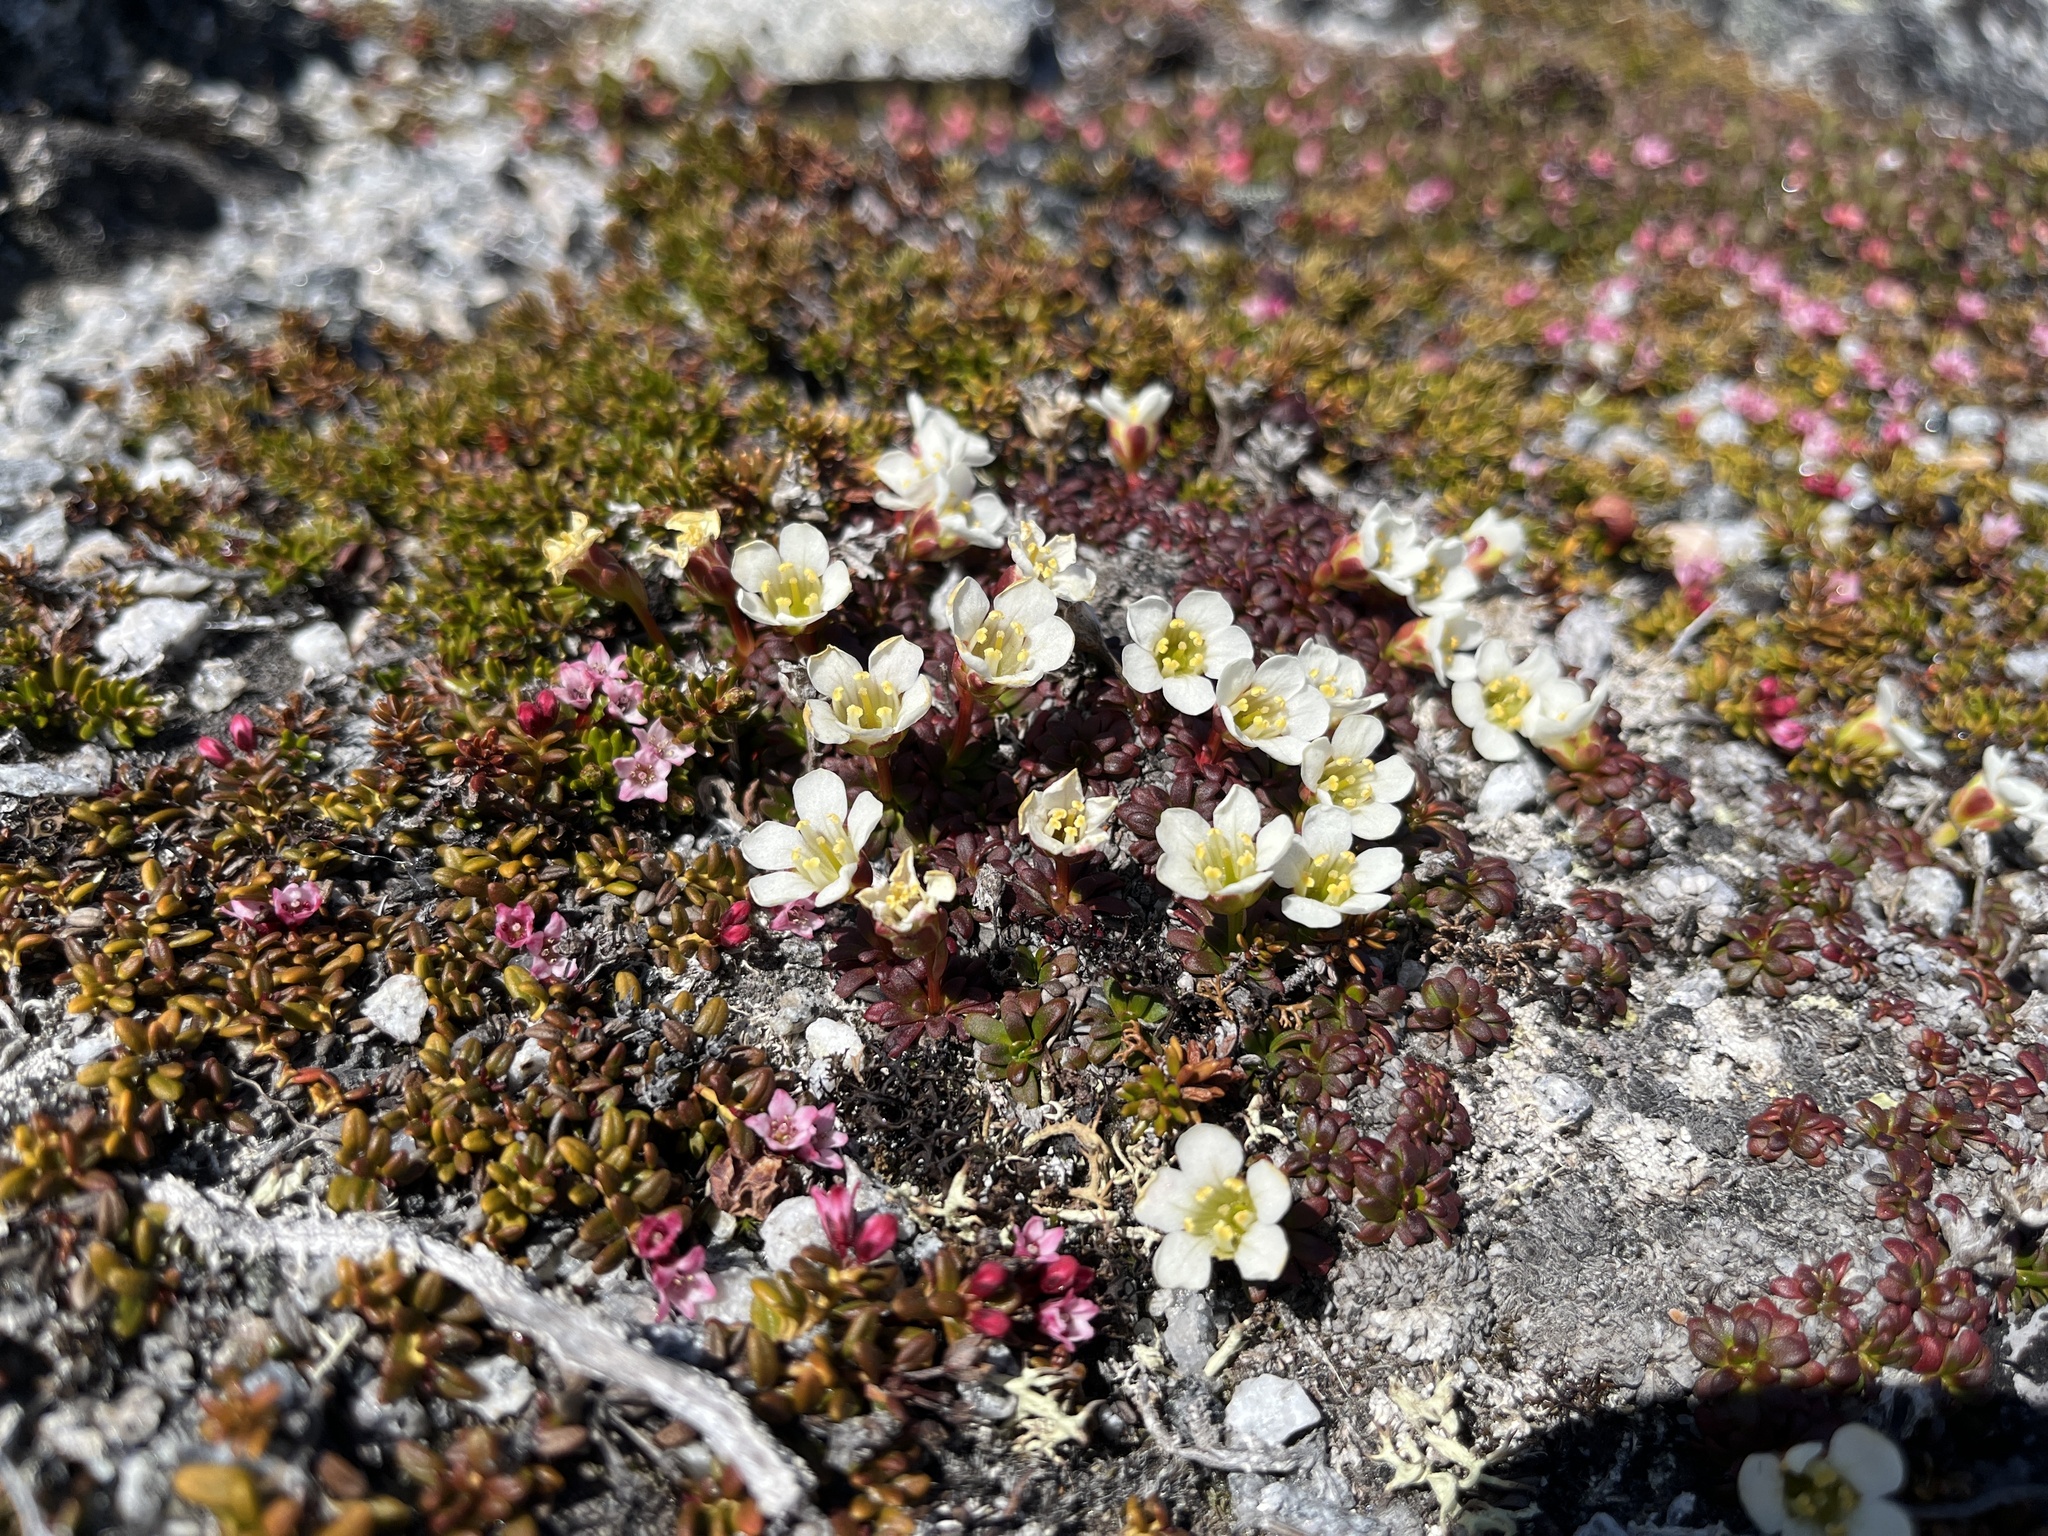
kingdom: Plantae
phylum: Tracheophyta
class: Magnoliopsida
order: Ericales
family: Diapensiaceae
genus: Diapensia
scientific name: Diapensia lapponica
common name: Diapensia
